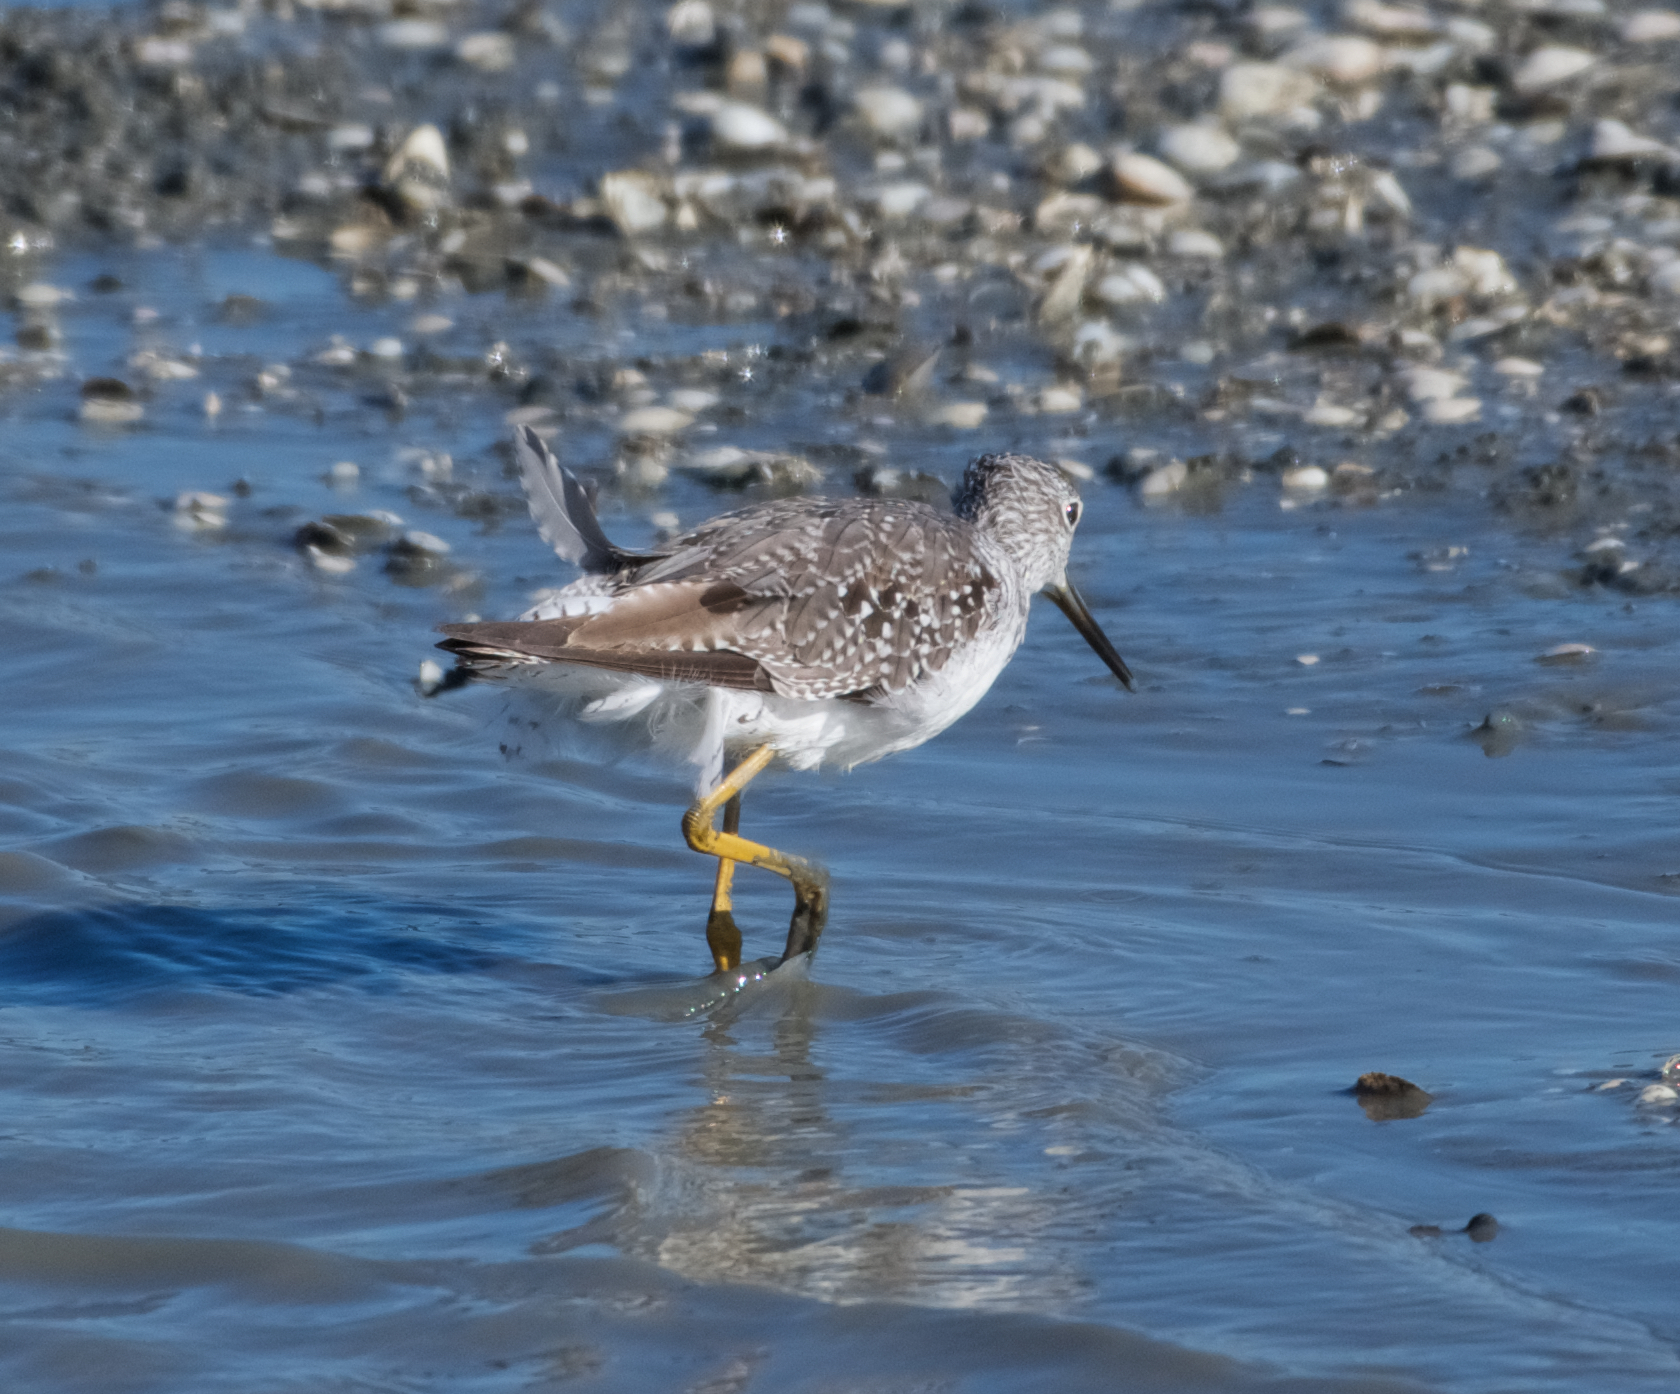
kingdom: Animalia
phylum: Chordata
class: Aves
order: Charadriiformes
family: Scolopacidae
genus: Tringa
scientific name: Tringa melanoleuca
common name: Greater yellowlegs
